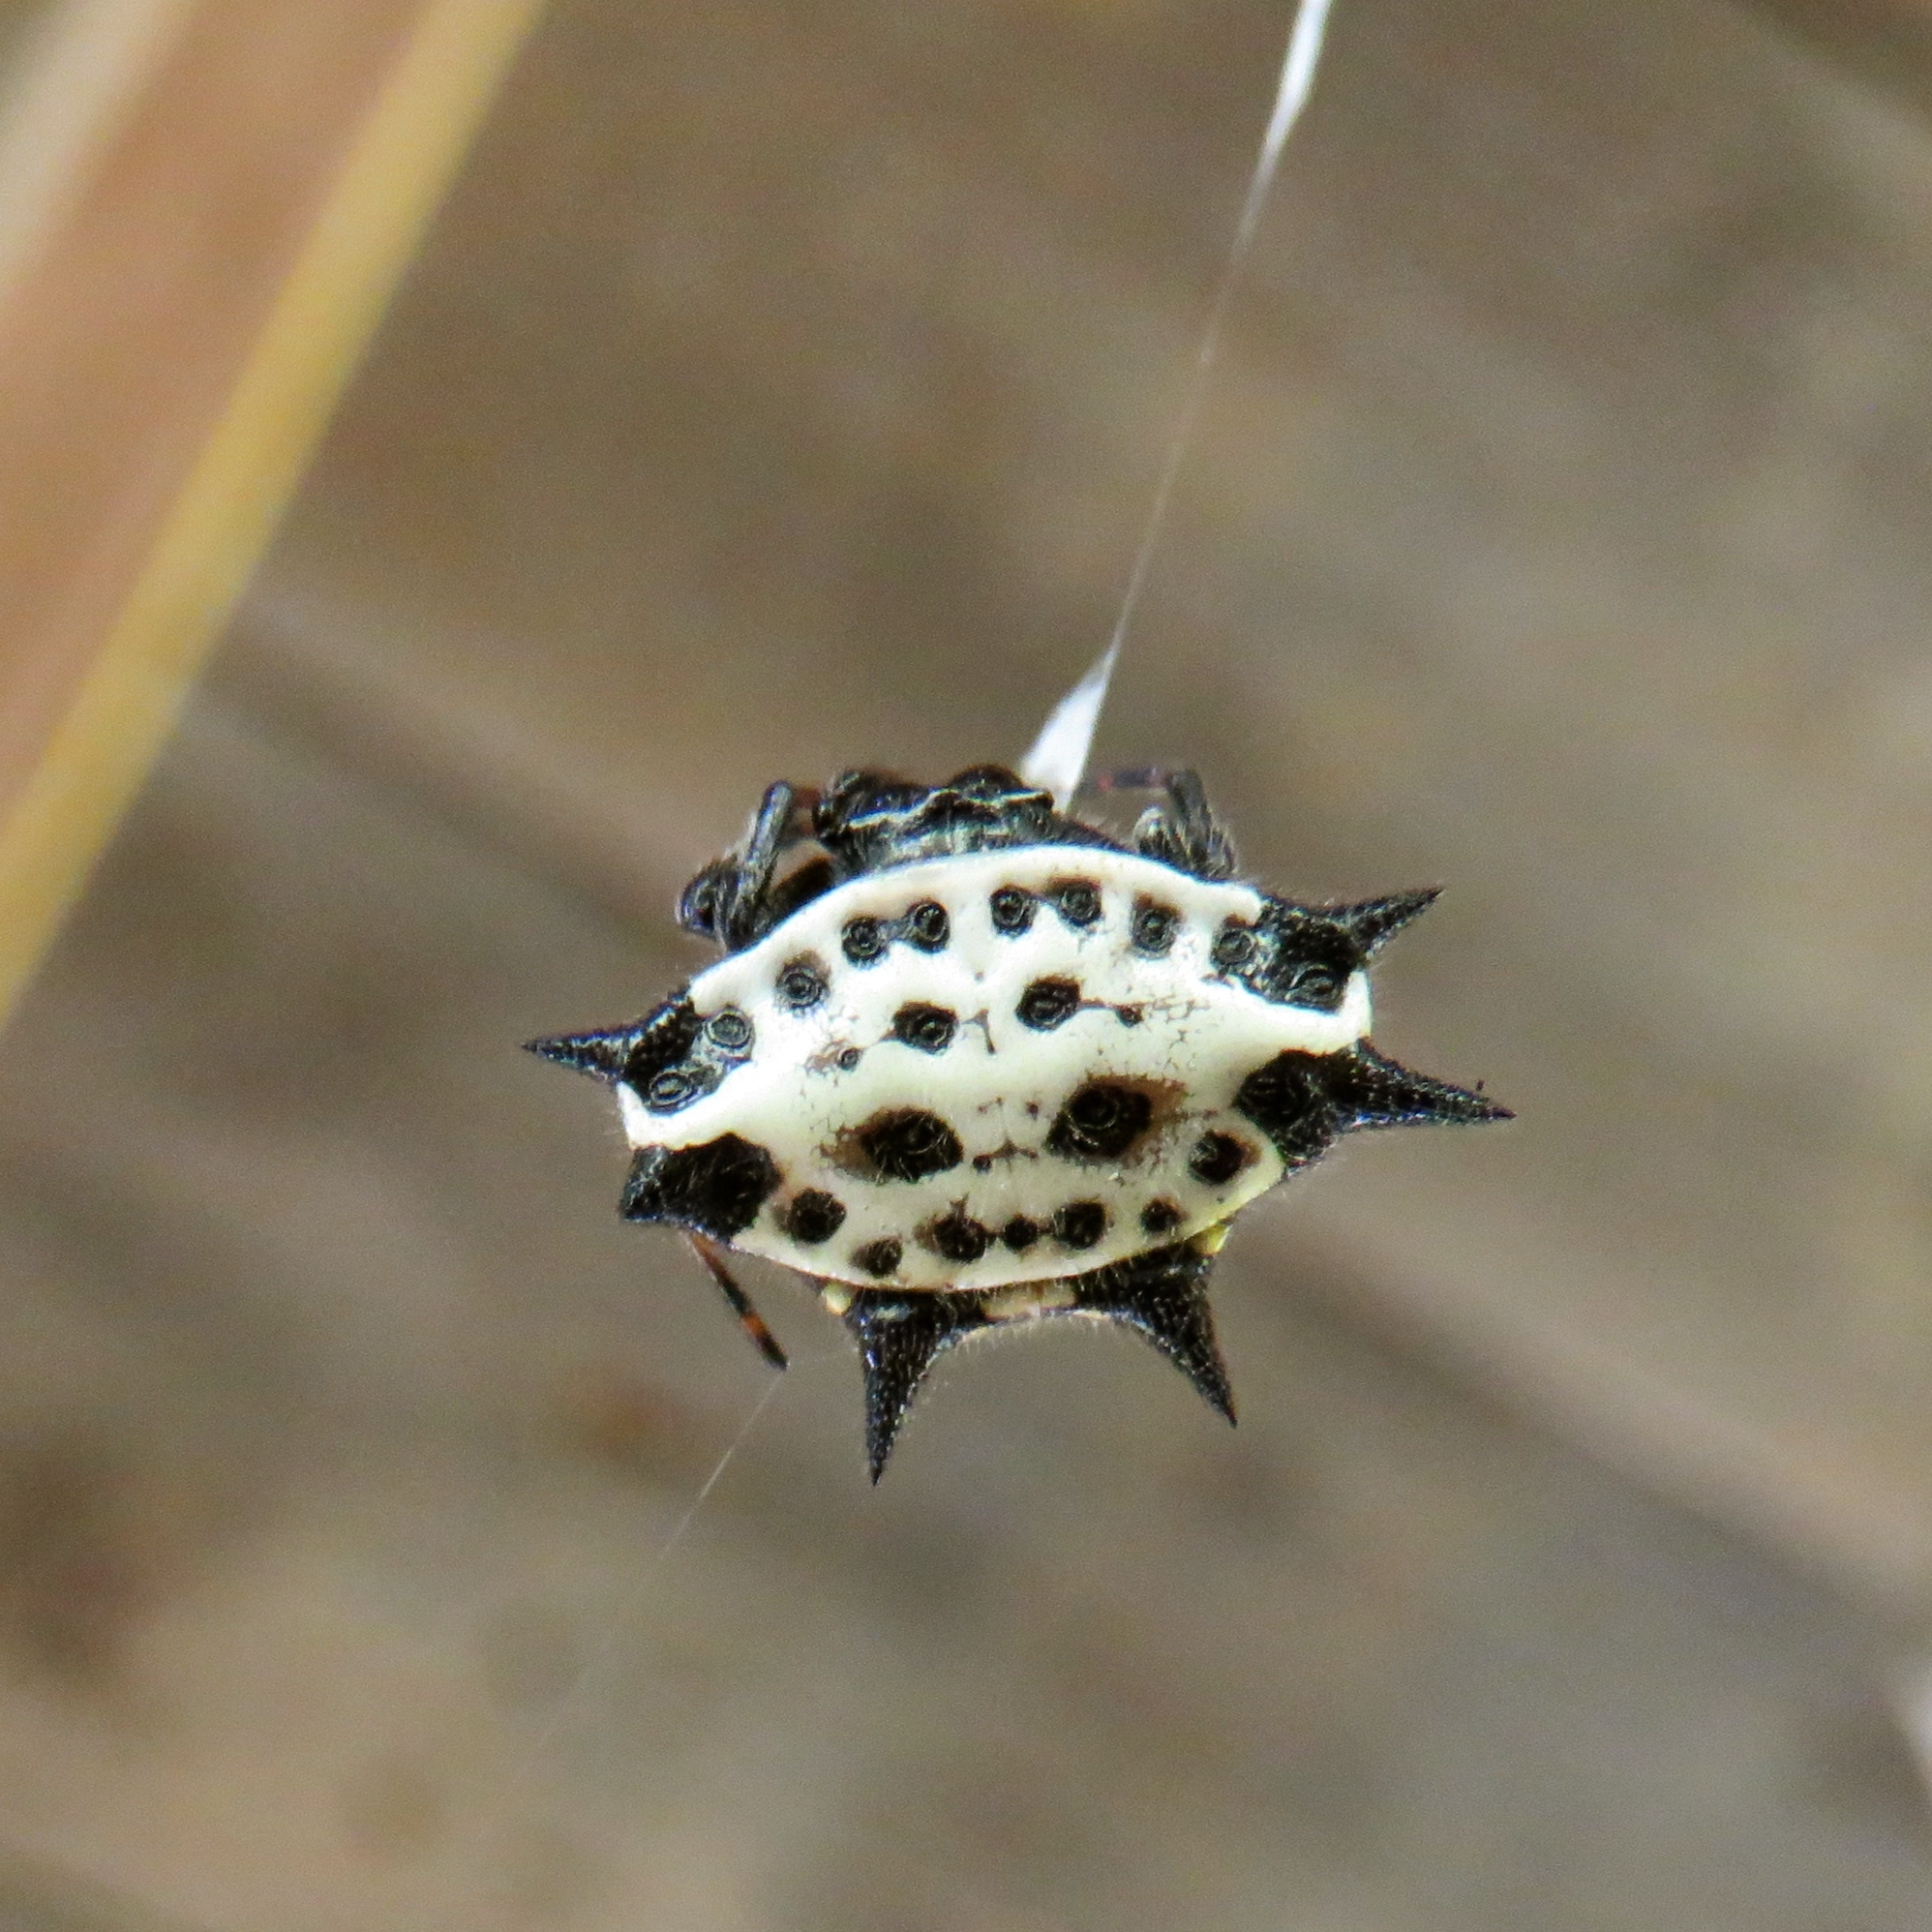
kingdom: Animalia
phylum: Arthropoda
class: Arachnida
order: Araneae
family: Araneidae
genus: Gasteracantha
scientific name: Gasteracantha cancriformis
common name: Orb weavers
